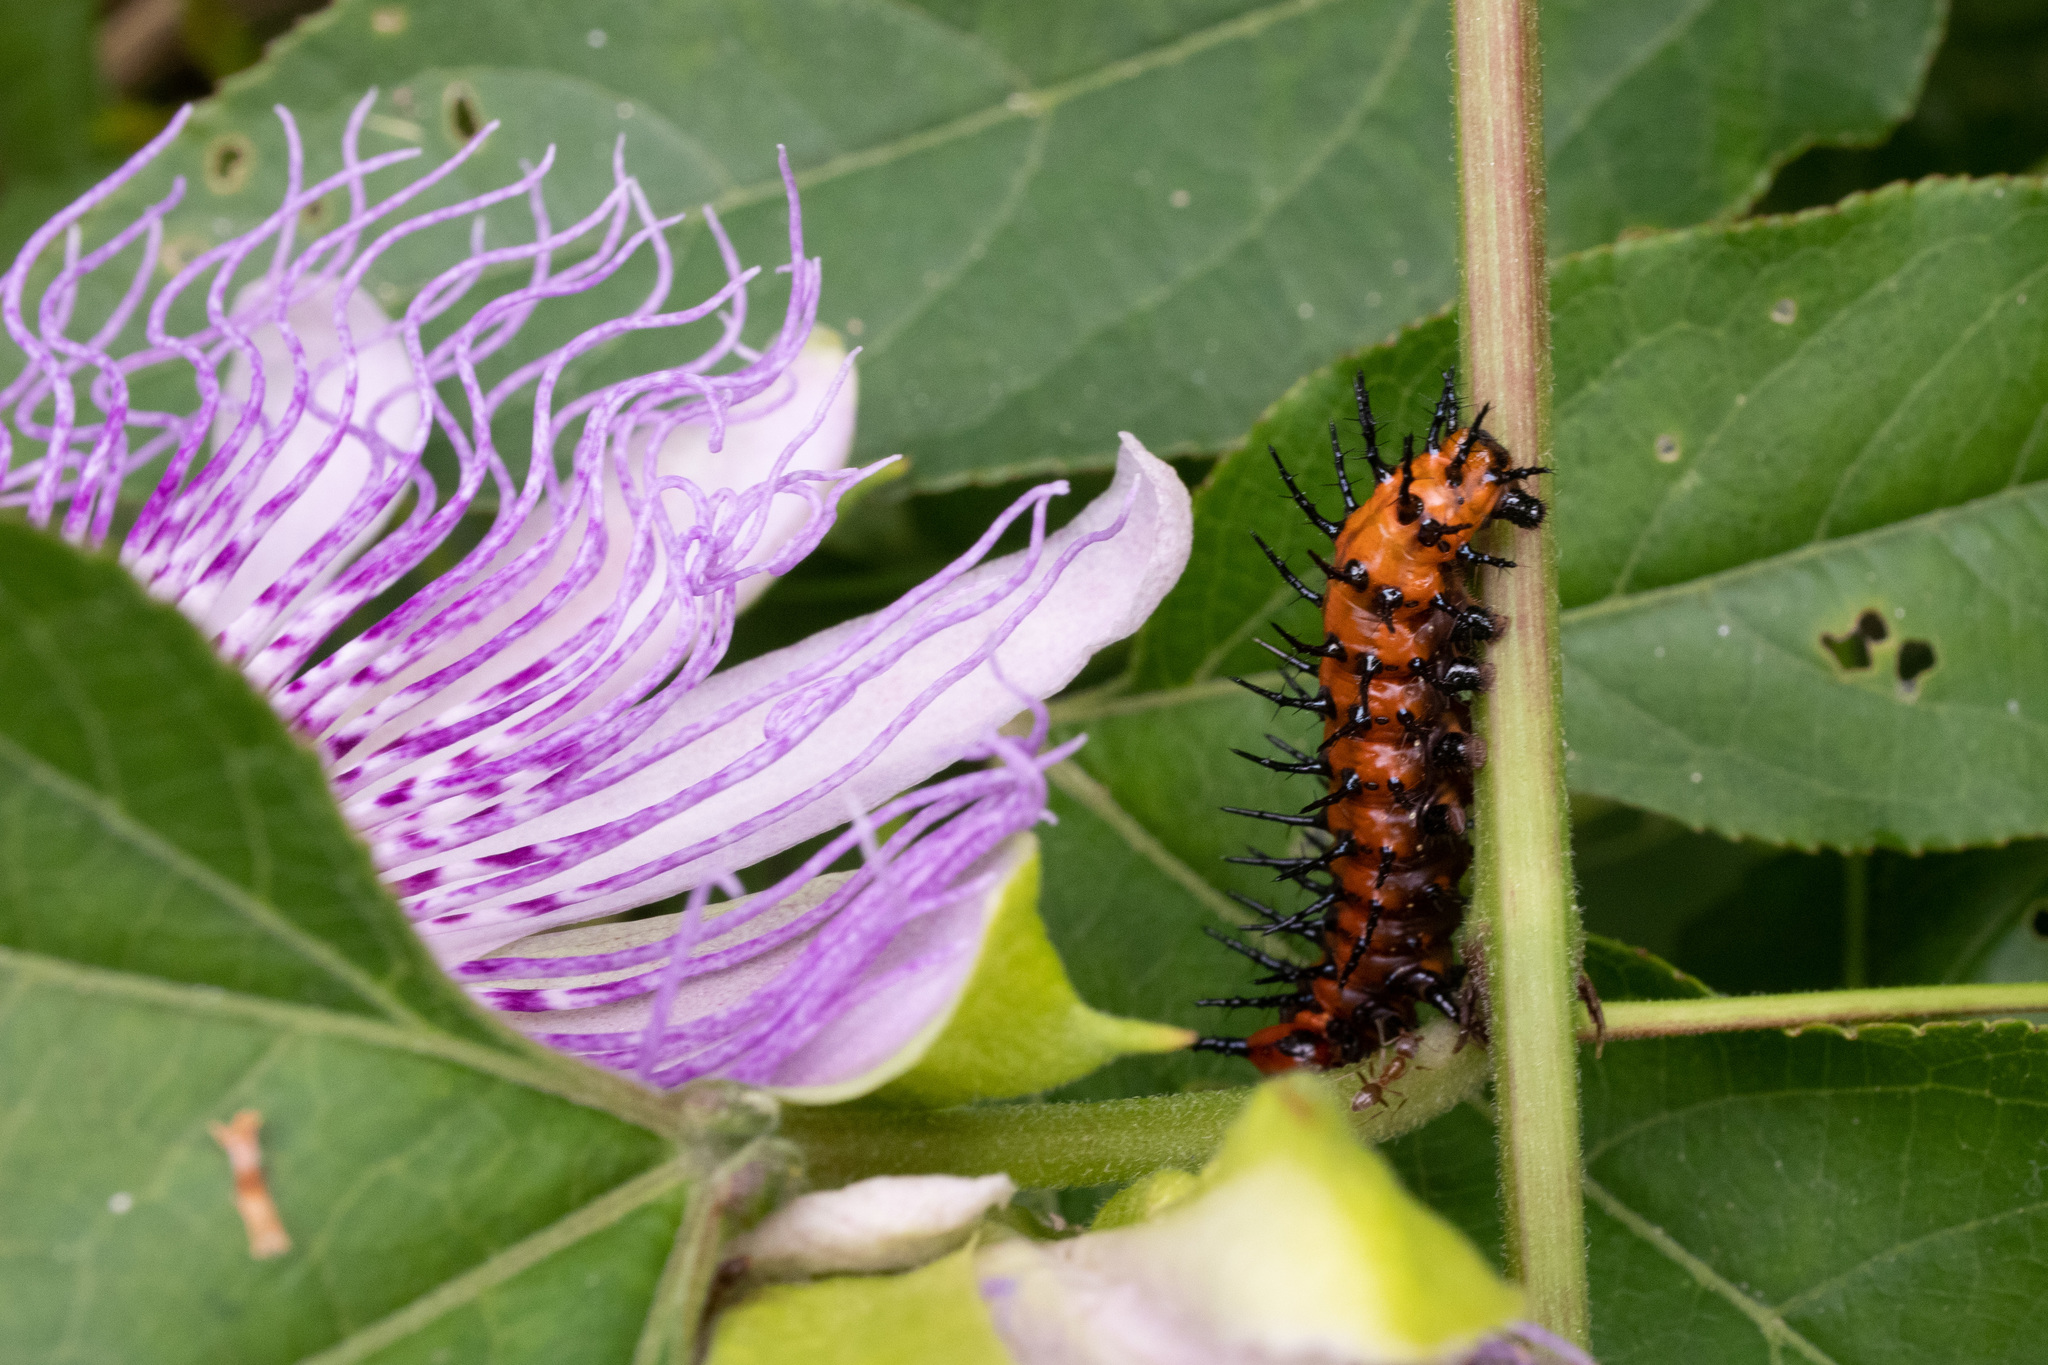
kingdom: Animalia
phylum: Arthropoda
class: Insecta
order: Lepidoptera
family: Nymphalidae
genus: Dione
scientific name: Dione vanillae
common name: Gulf fritillary
